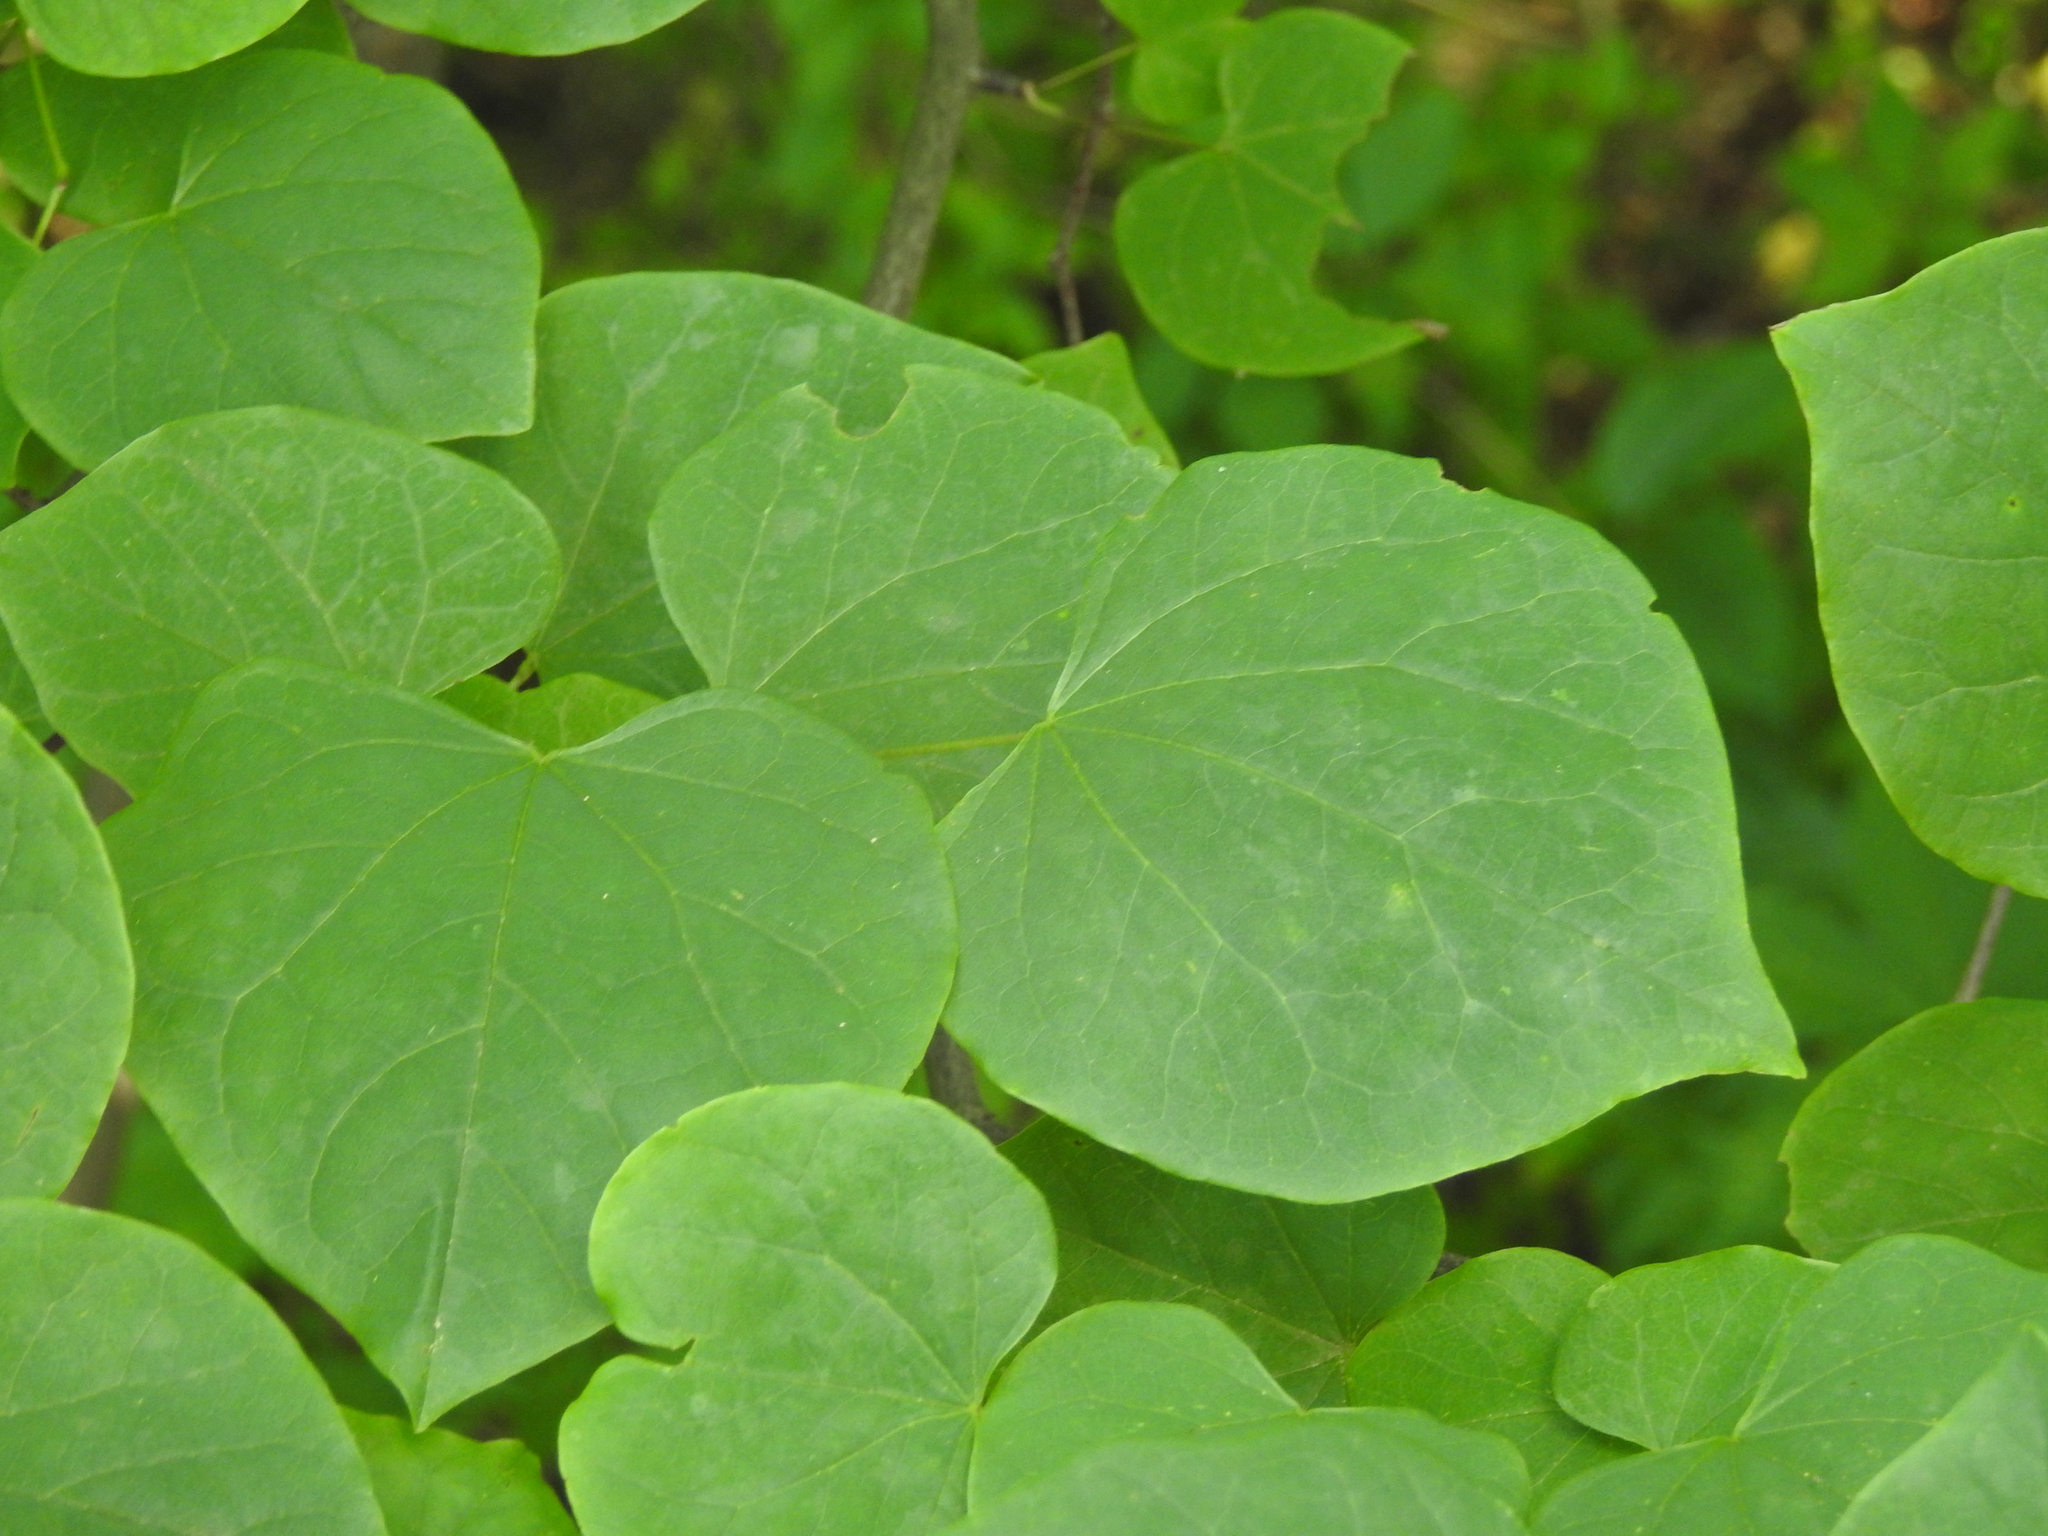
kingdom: Plantae
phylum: Tracheophyta
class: Magnoliopsida
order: Fabales
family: Fabaceae
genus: Cercis
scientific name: Cercis canadensis
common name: Eastern redbud
